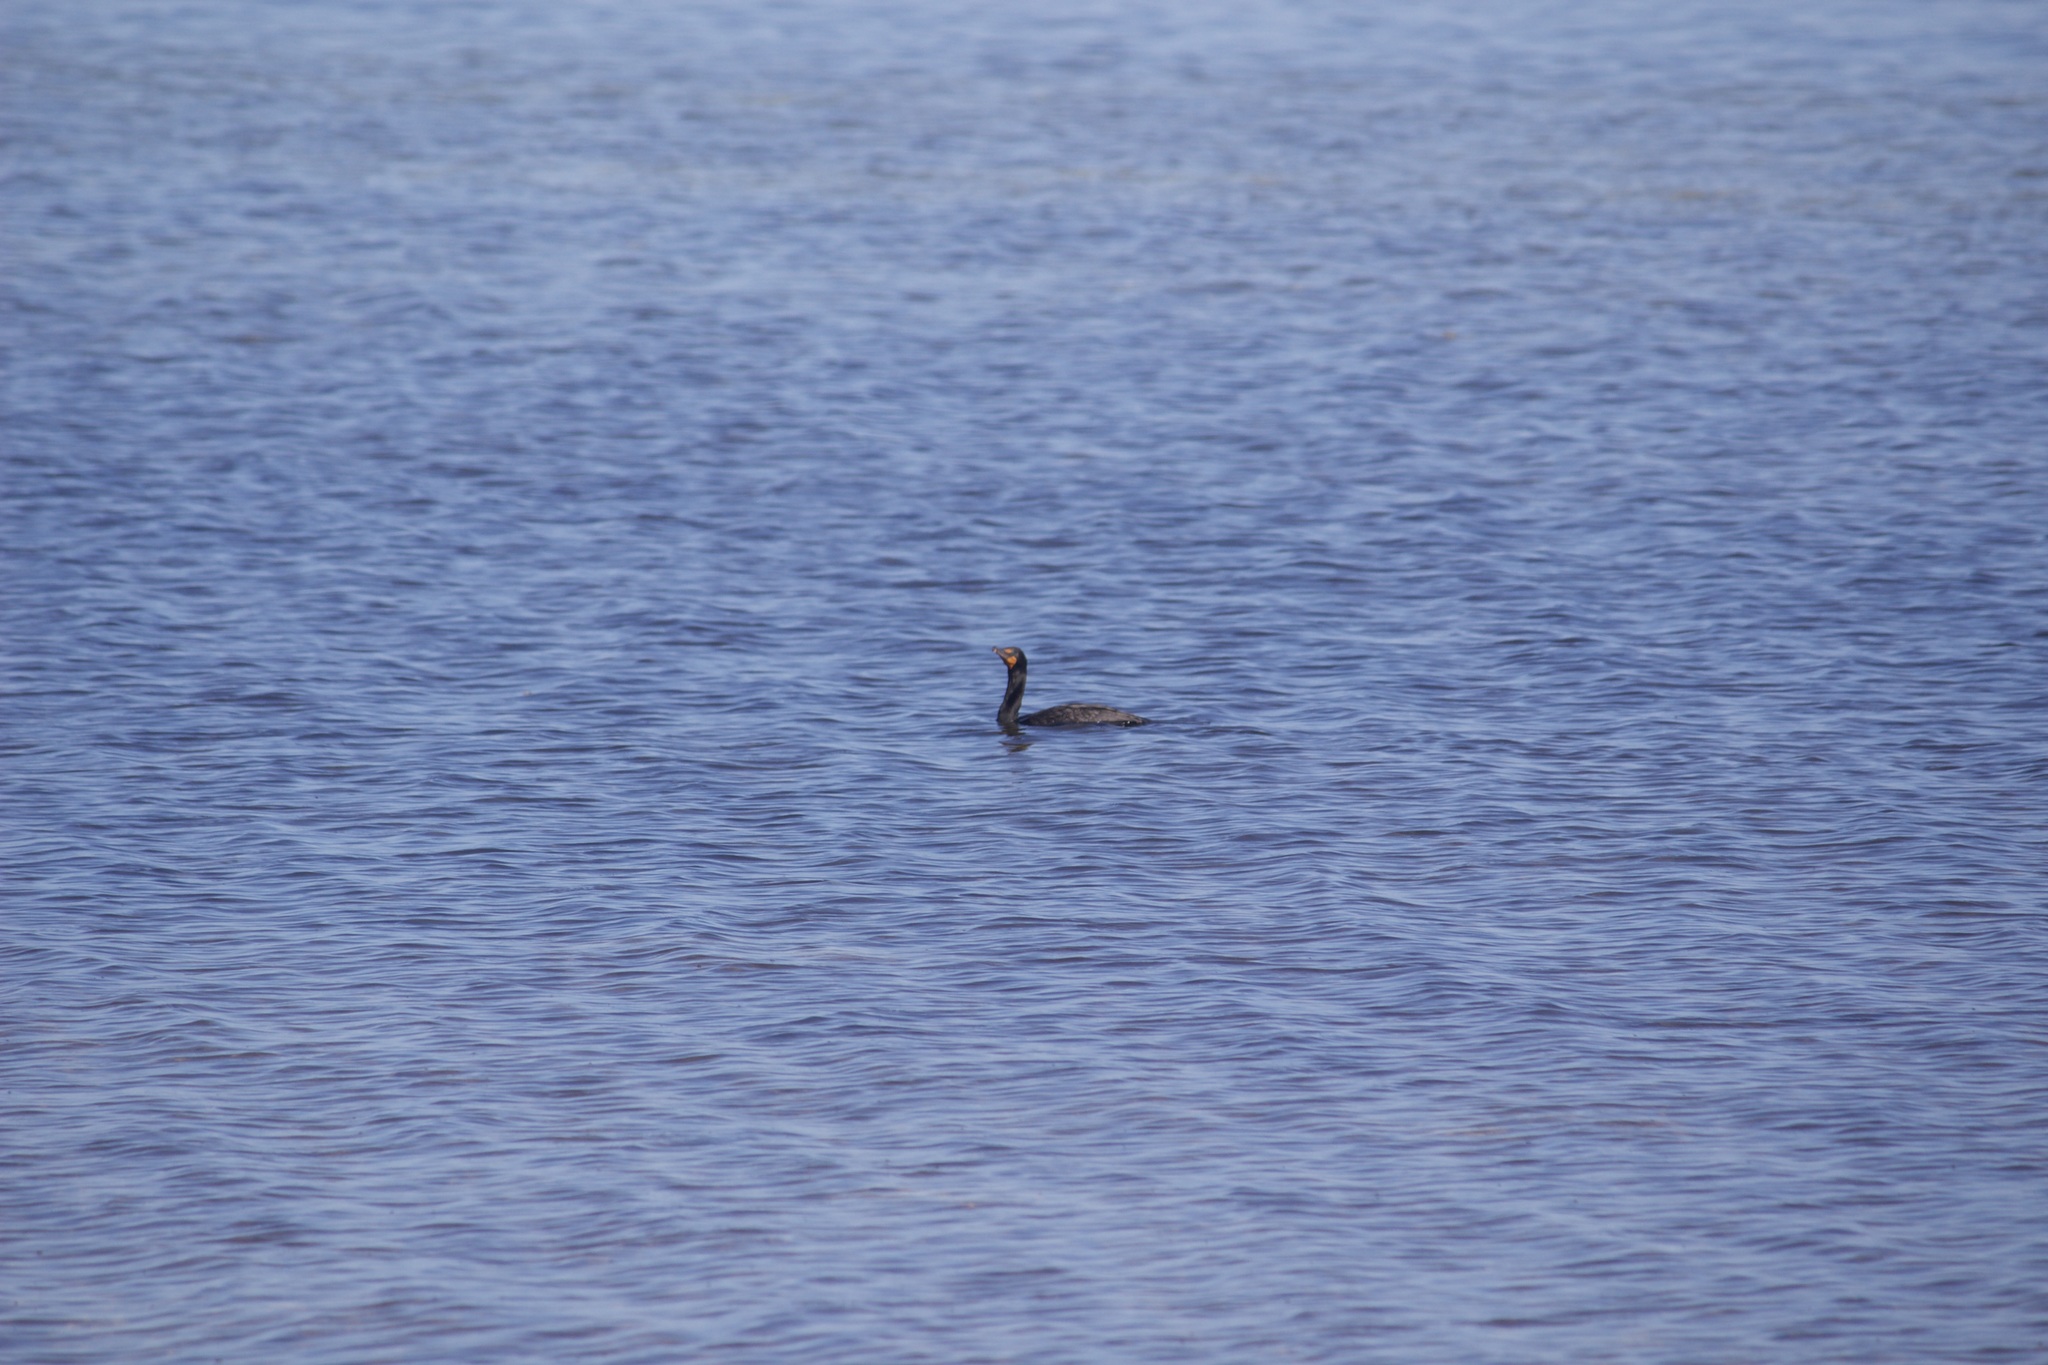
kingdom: Animalia
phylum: Chordata
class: Aves
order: Suliformes
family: Phalacrocoracidae
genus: Phalacrocorax
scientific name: Phalacrocorax auritus
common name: Double-crested cormorant
